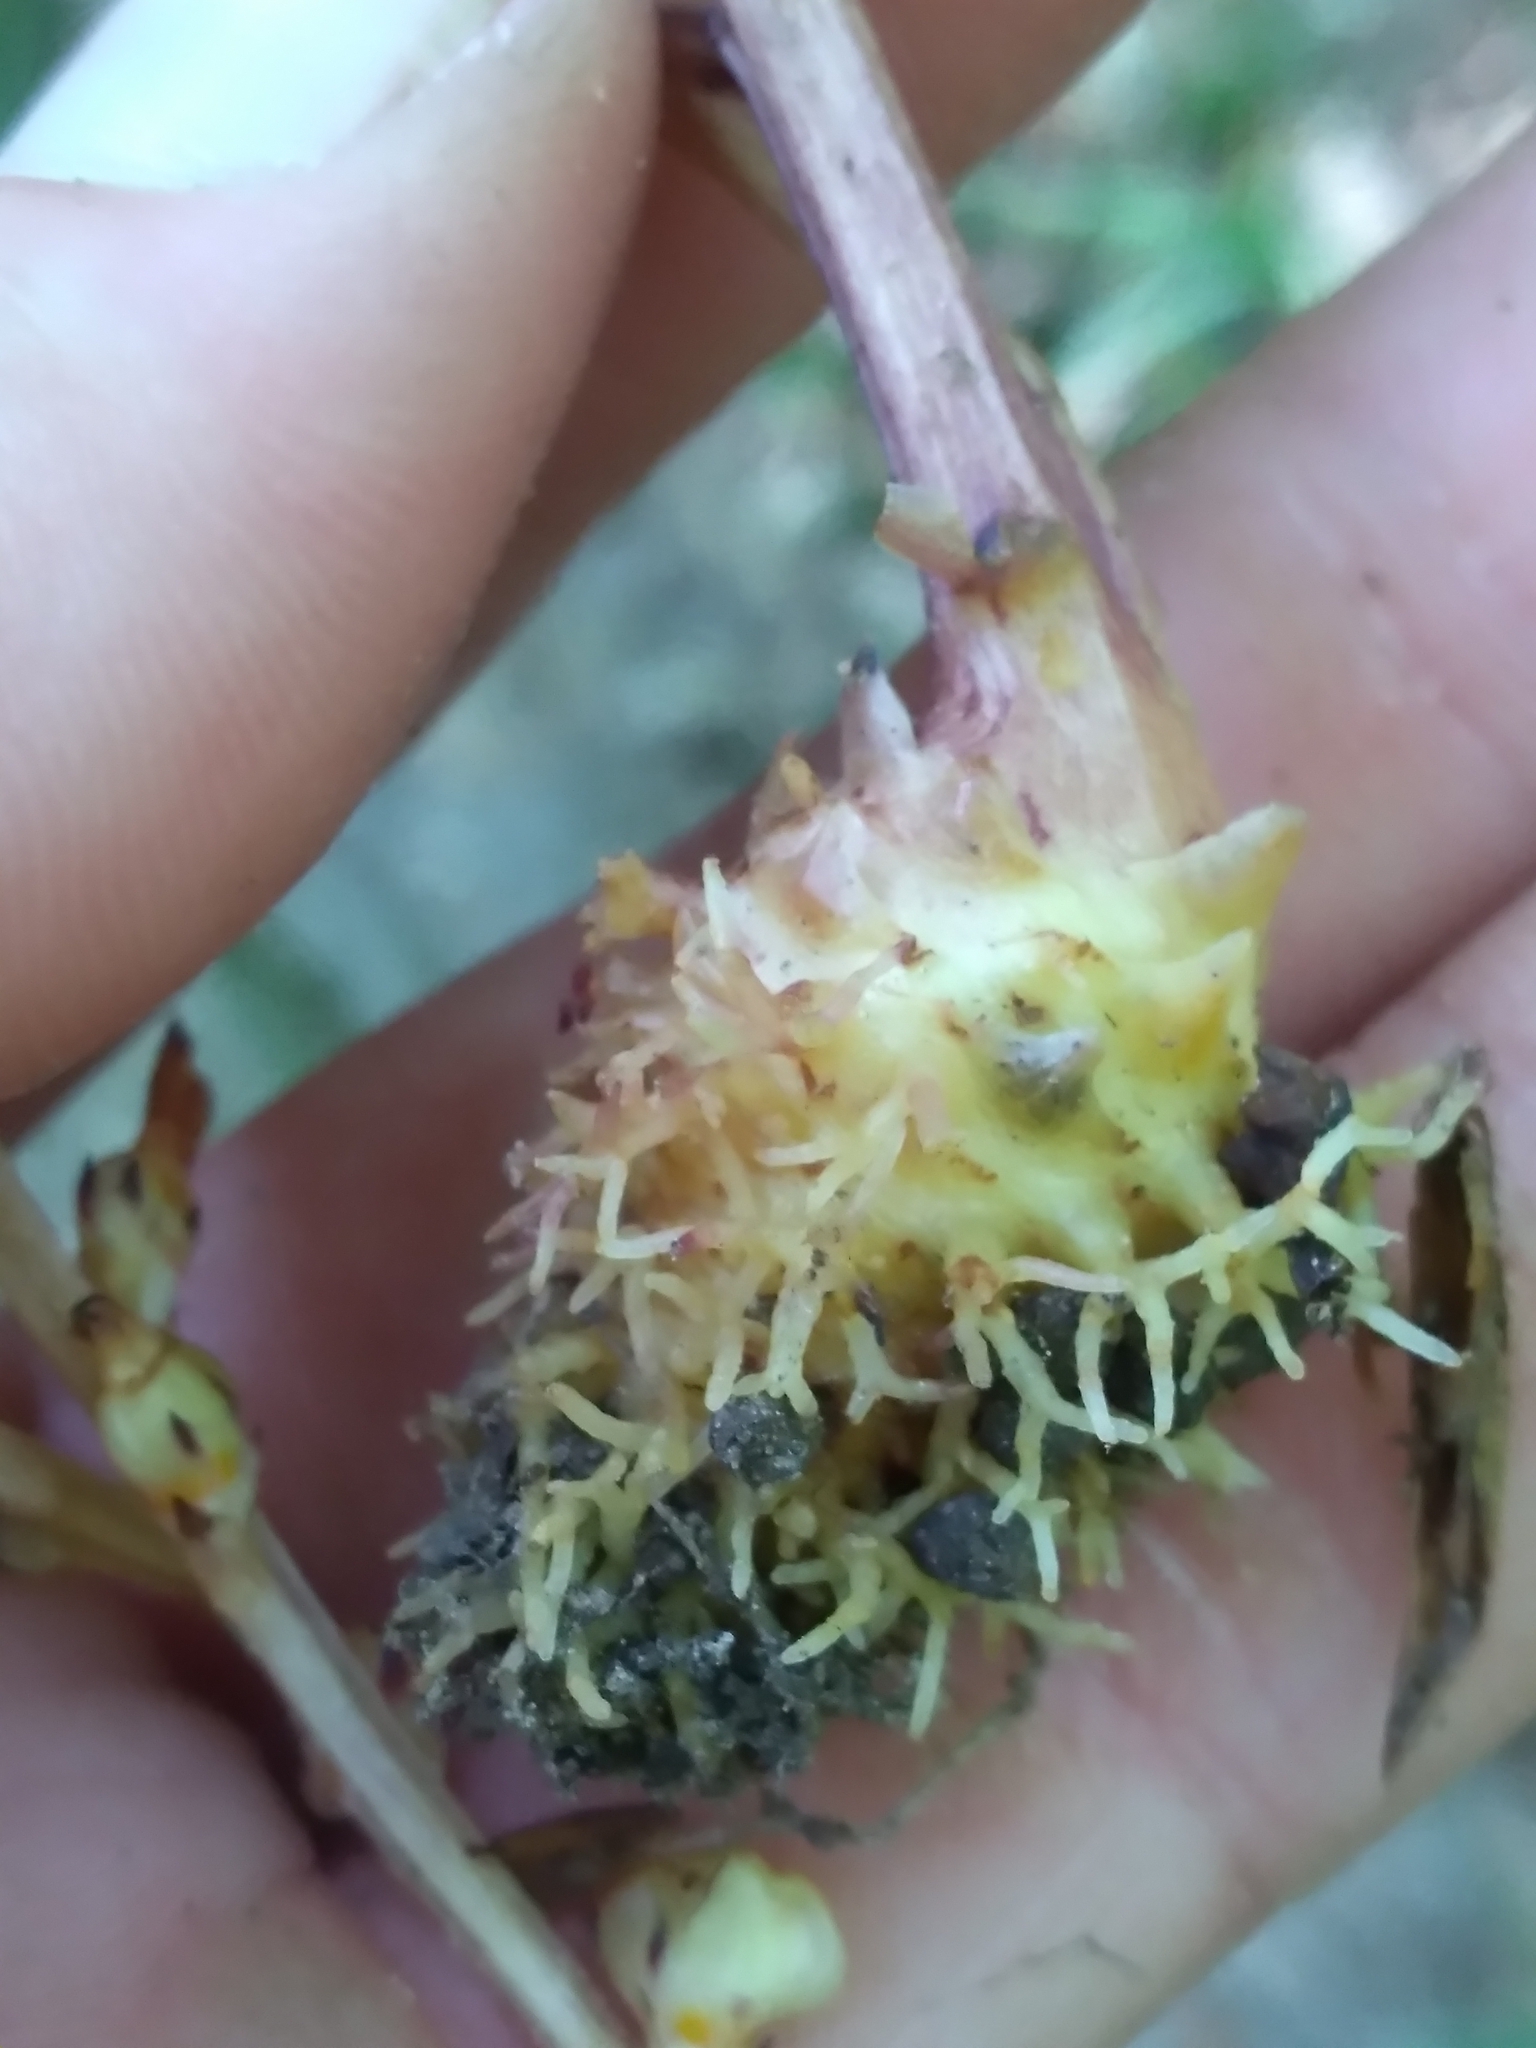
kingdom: Plantae
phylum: Tracheophyta
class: Magnoliopsida
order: Lamiales
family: Orobanchaceae
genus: Epifagus
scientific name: Epifagus virginiana
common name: Beechdrops
